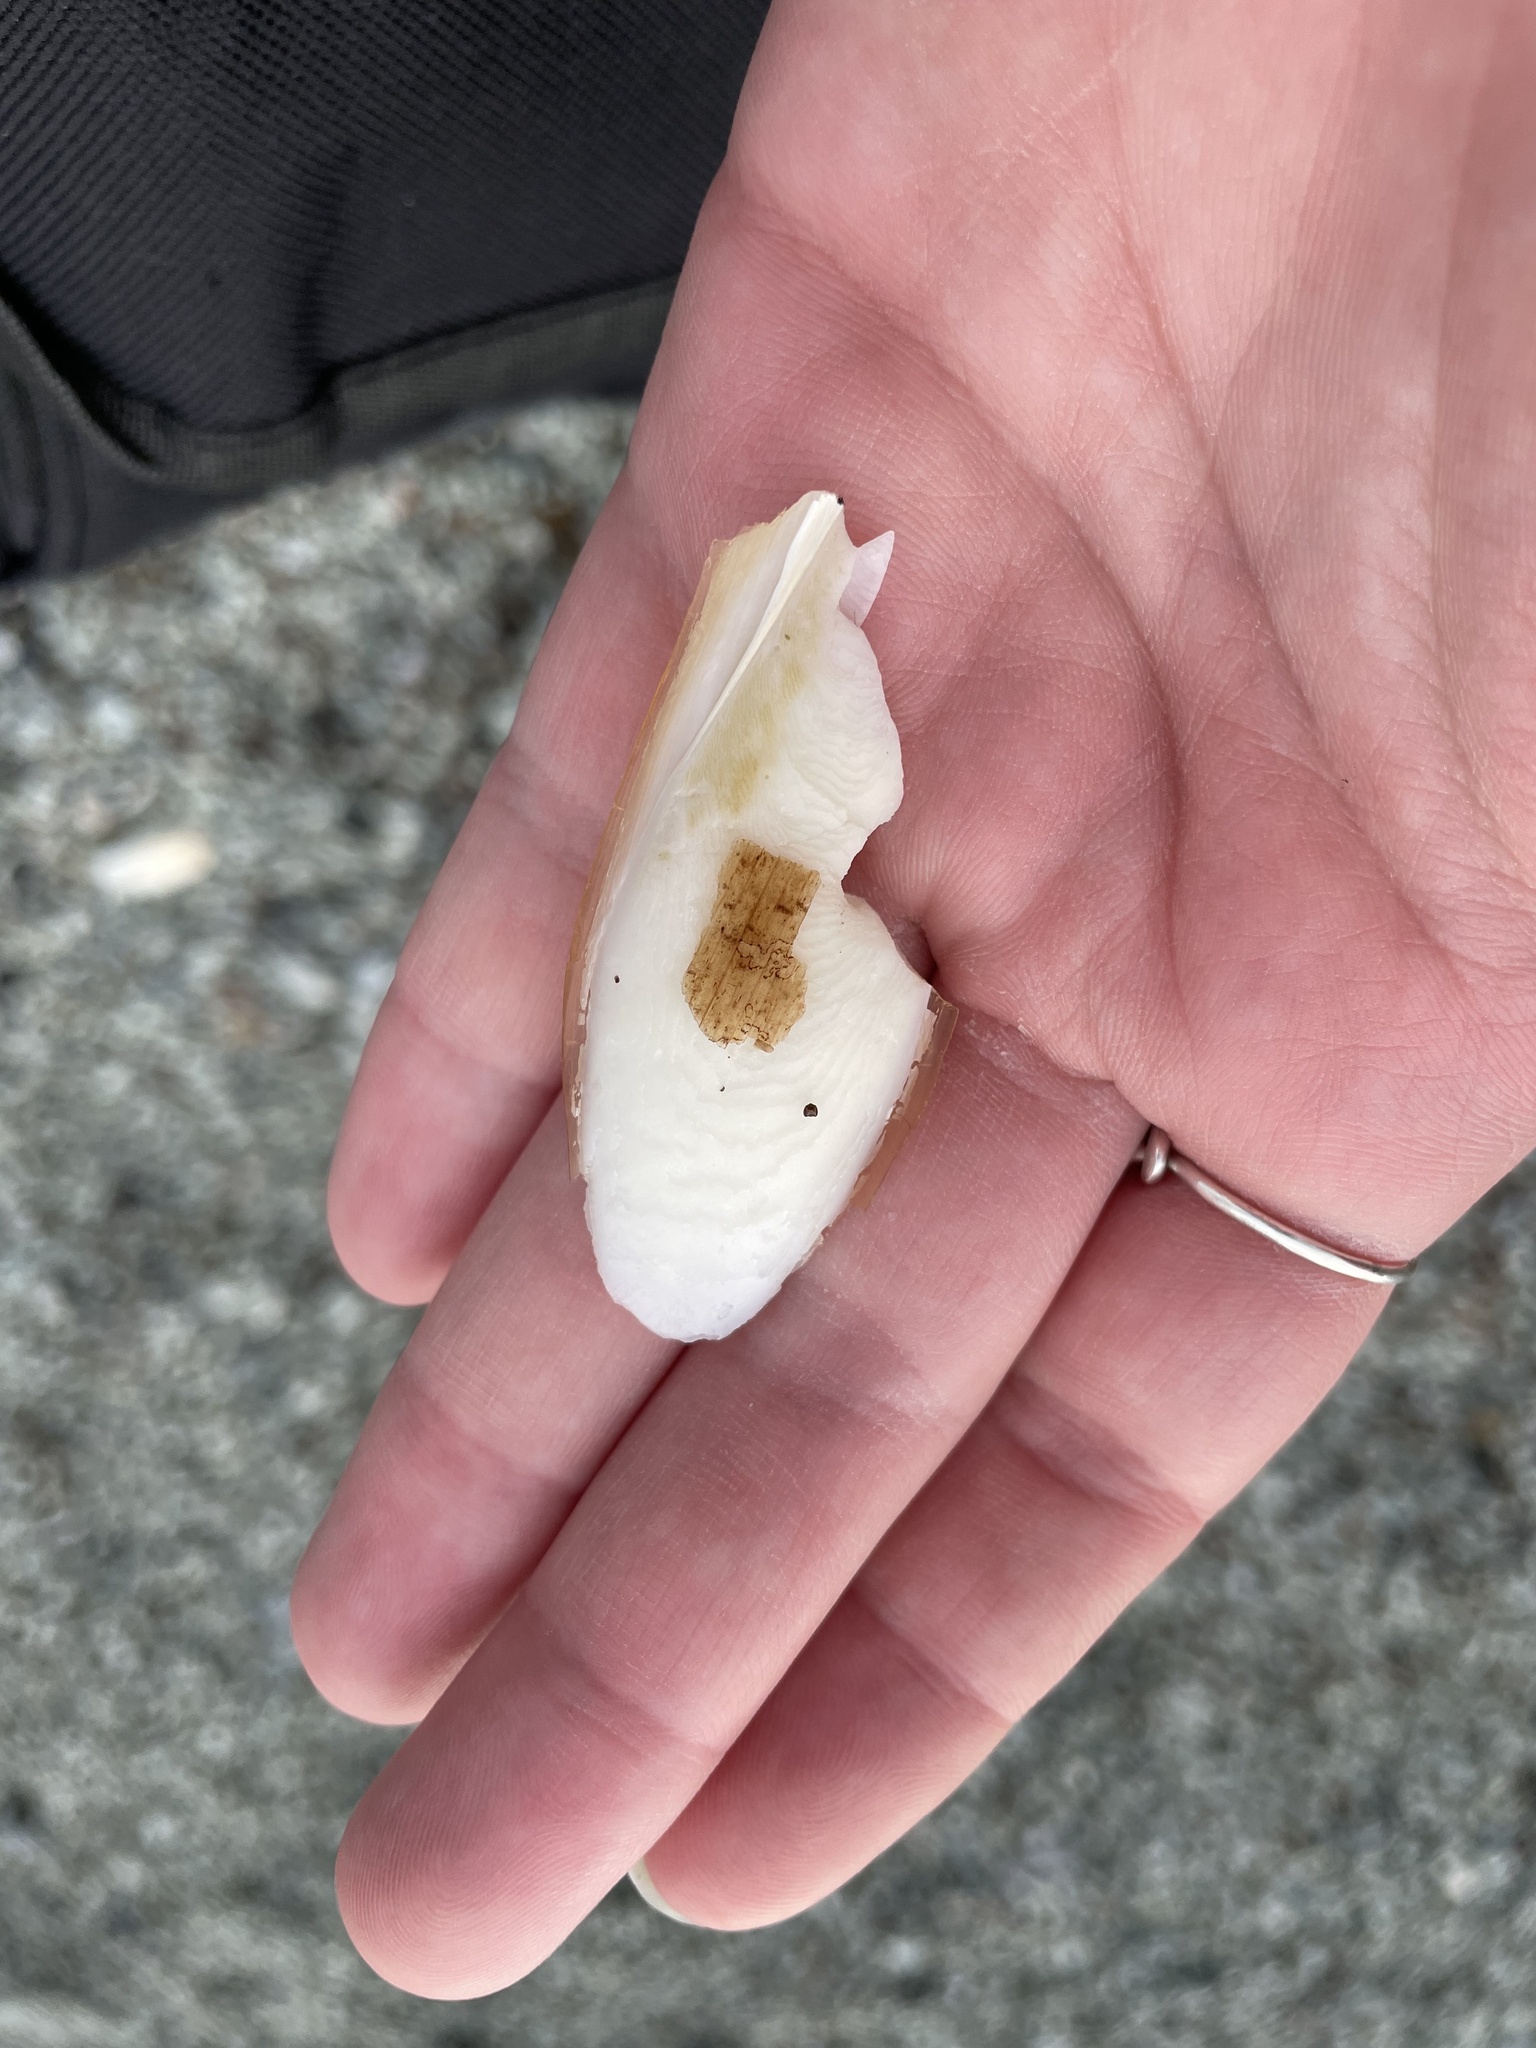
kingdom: Animalia
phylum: Mollusca
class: Cephalopoda
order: Sepiida
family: Sepiidae
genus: Sepia
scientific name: Sepia officinalis
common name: Common cuttlefish
